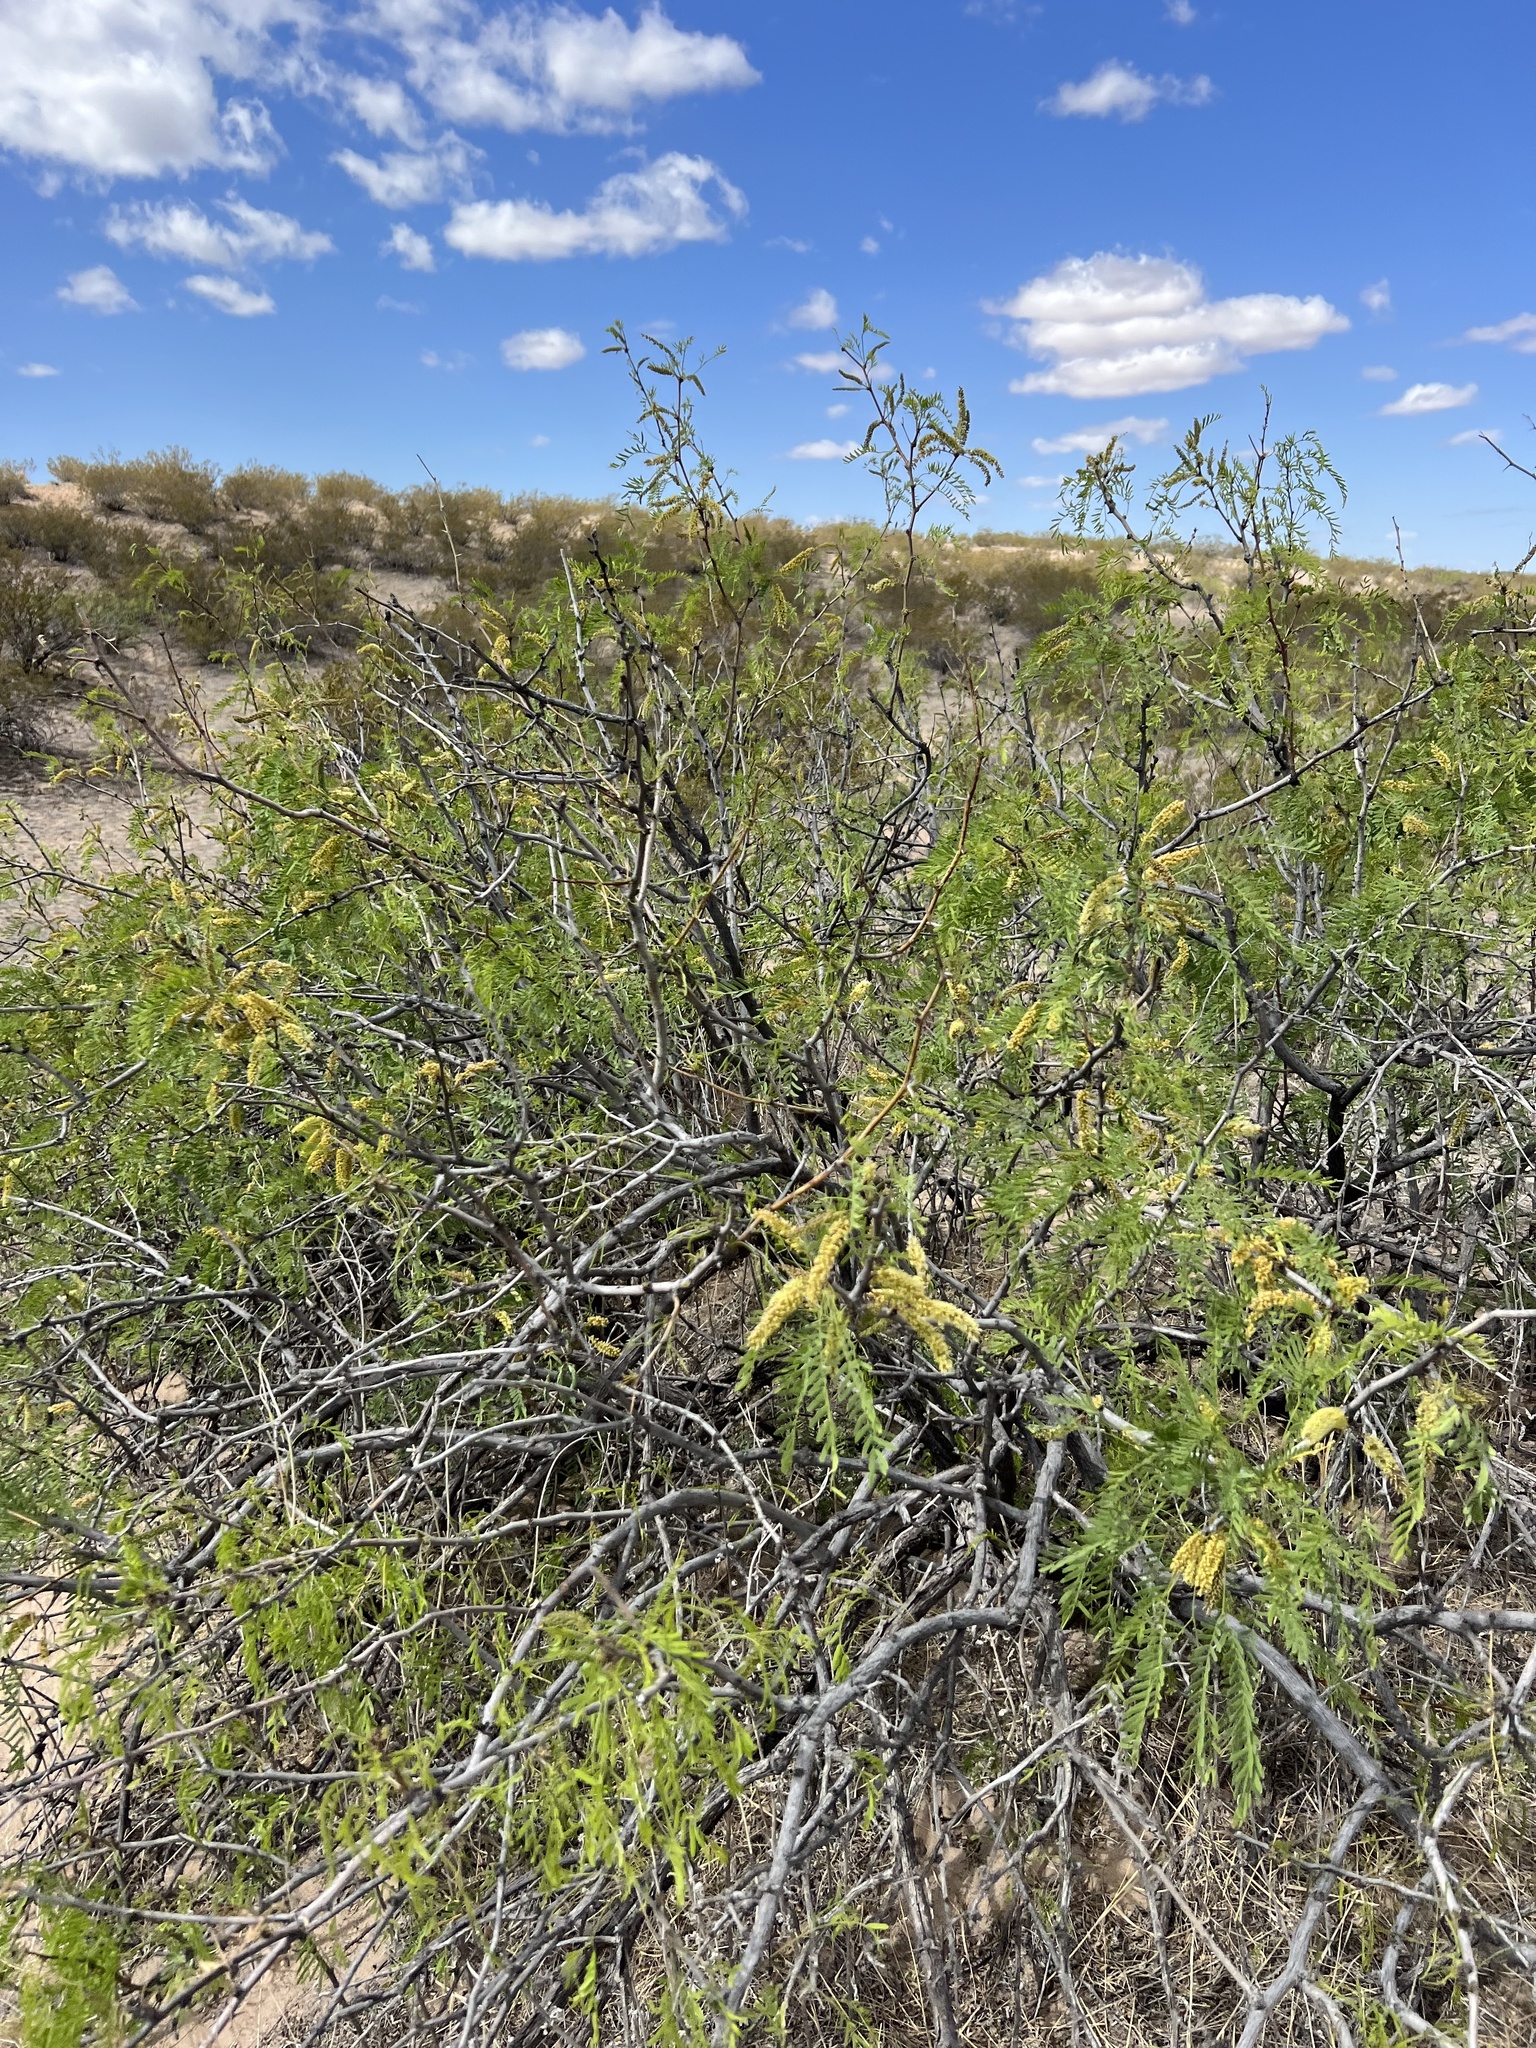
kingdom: Plantae
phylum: Tracheophyta
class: Magnoliopsida
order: Fabales
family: Fabaceae
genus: Prosopis
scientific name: Prosopis glandulosa
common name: Honey mesquite
